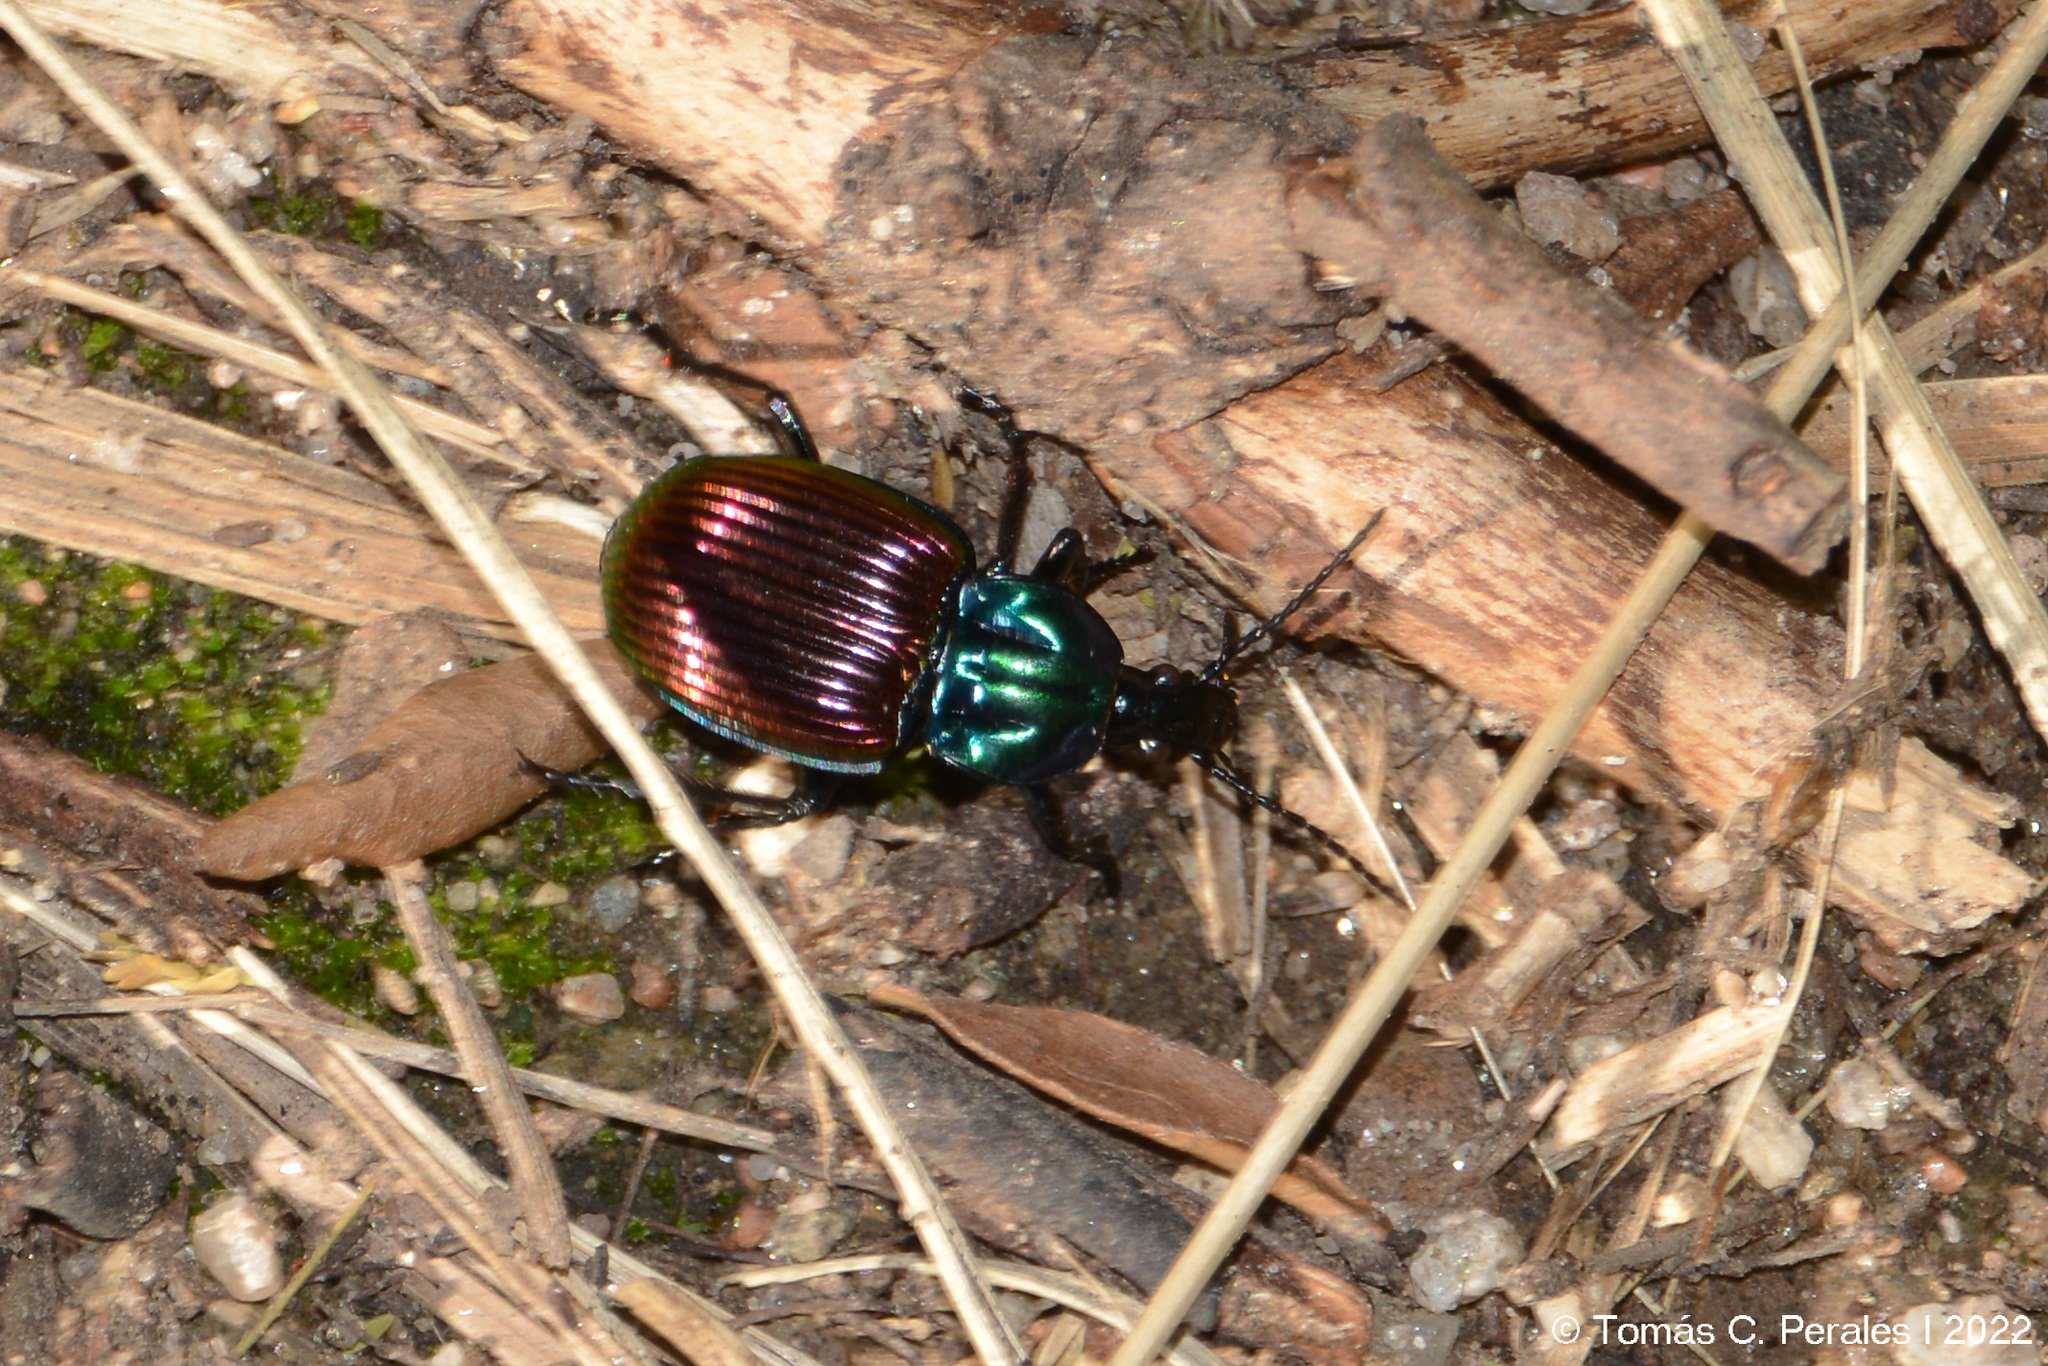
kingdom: Animalia
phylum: Arthropoda
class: Insecta
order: Coleoptera
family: Carabidae
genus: Brachygnathus
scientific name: Brachygnathus festivus
